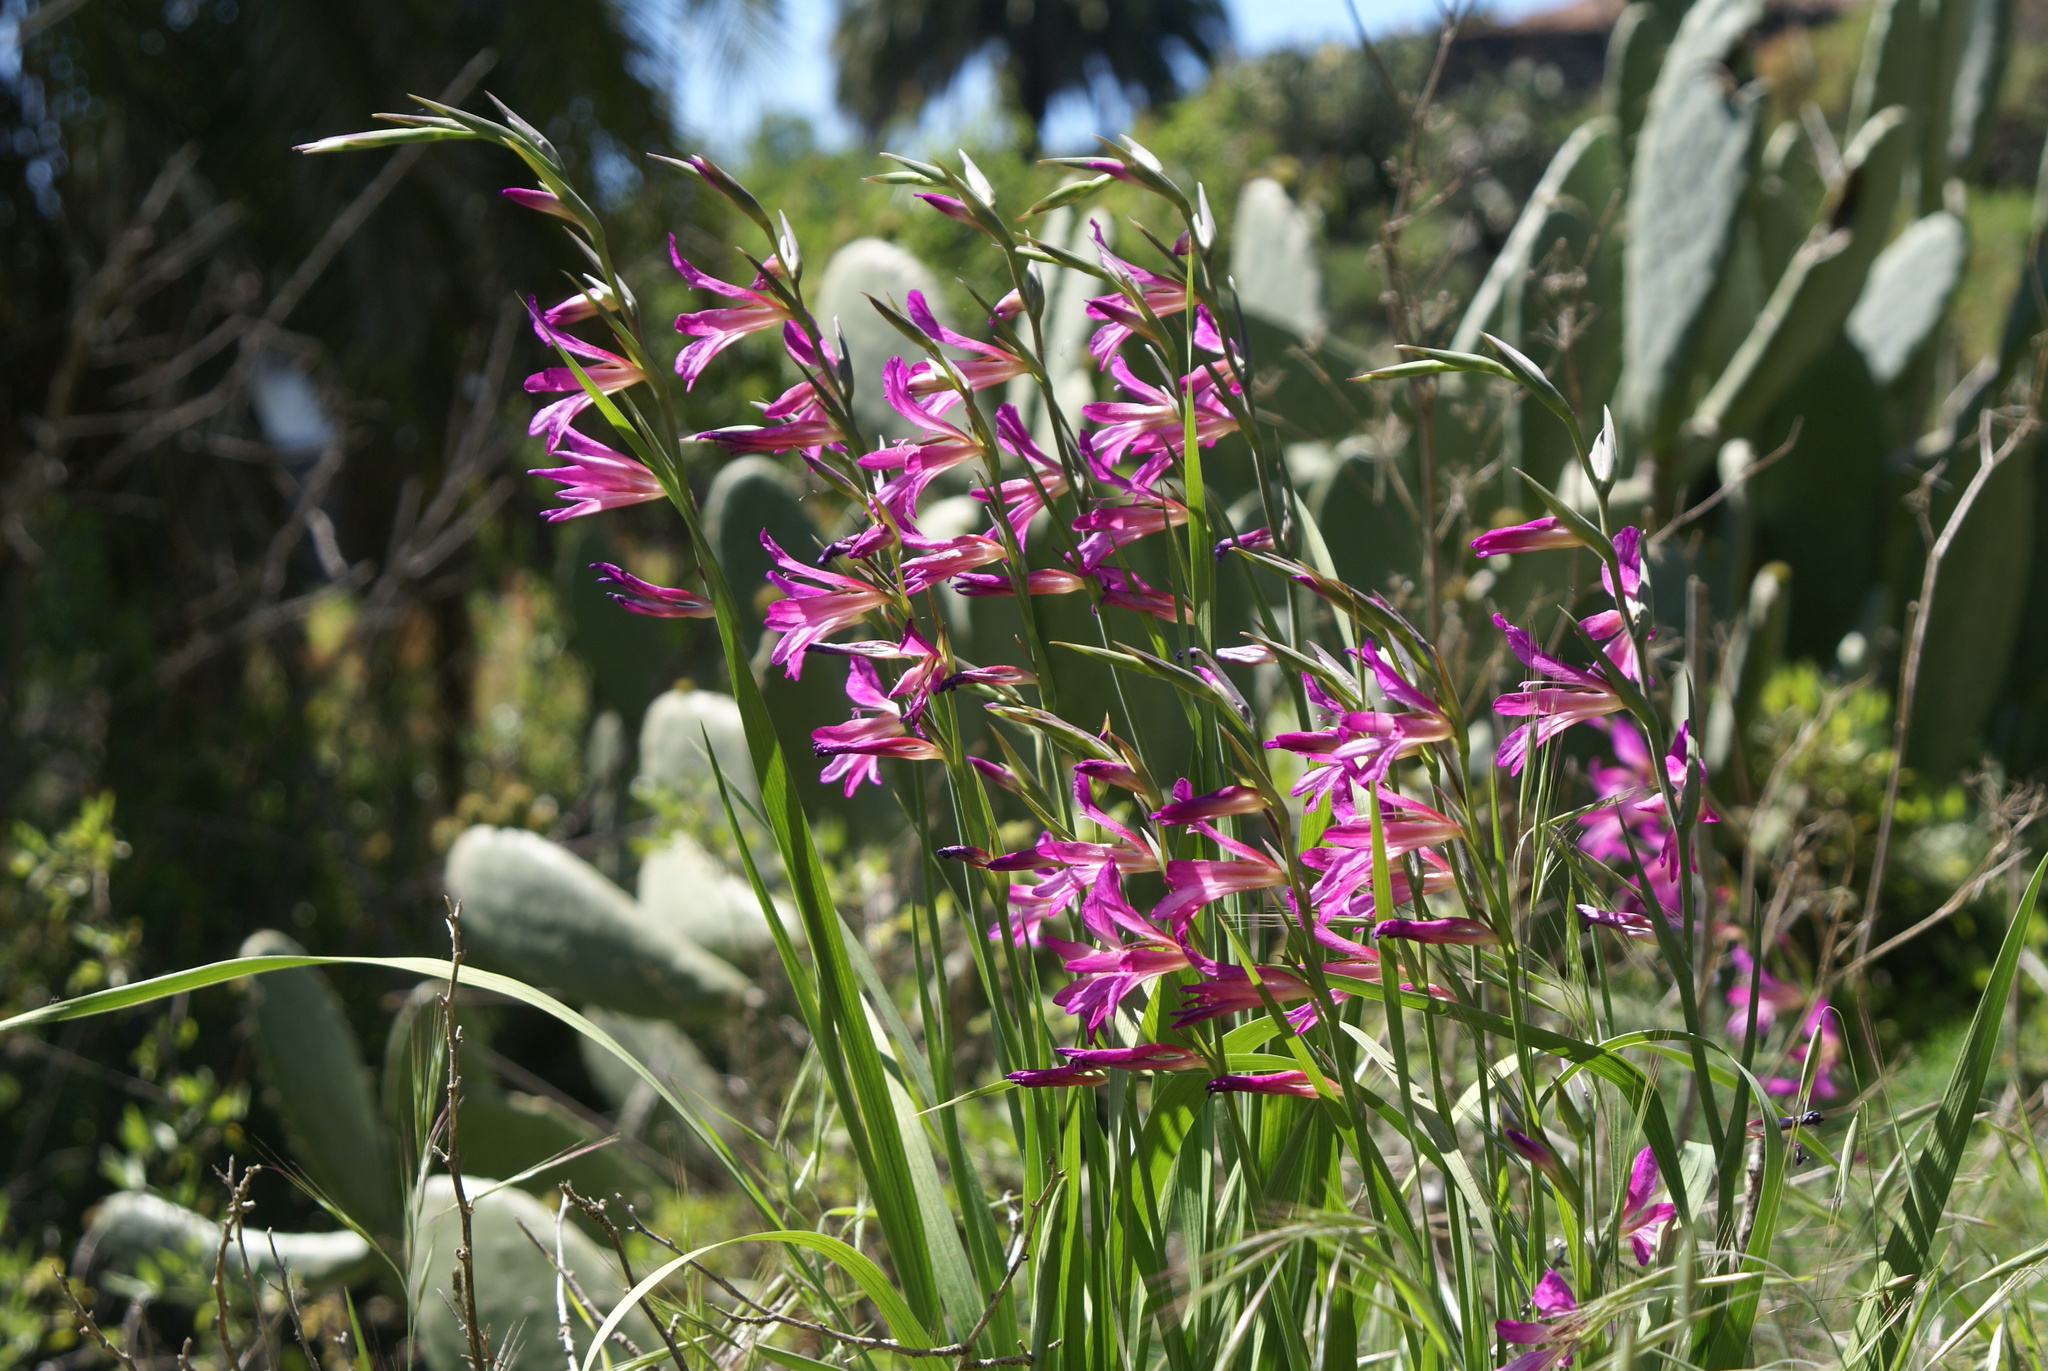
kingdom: Plantae
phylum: Tracheophyta
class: Liliopsida
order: Asparagales
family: Iridaceae
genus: Gladiolus
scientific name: Gladiolus italicus
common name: Field gladiolus
